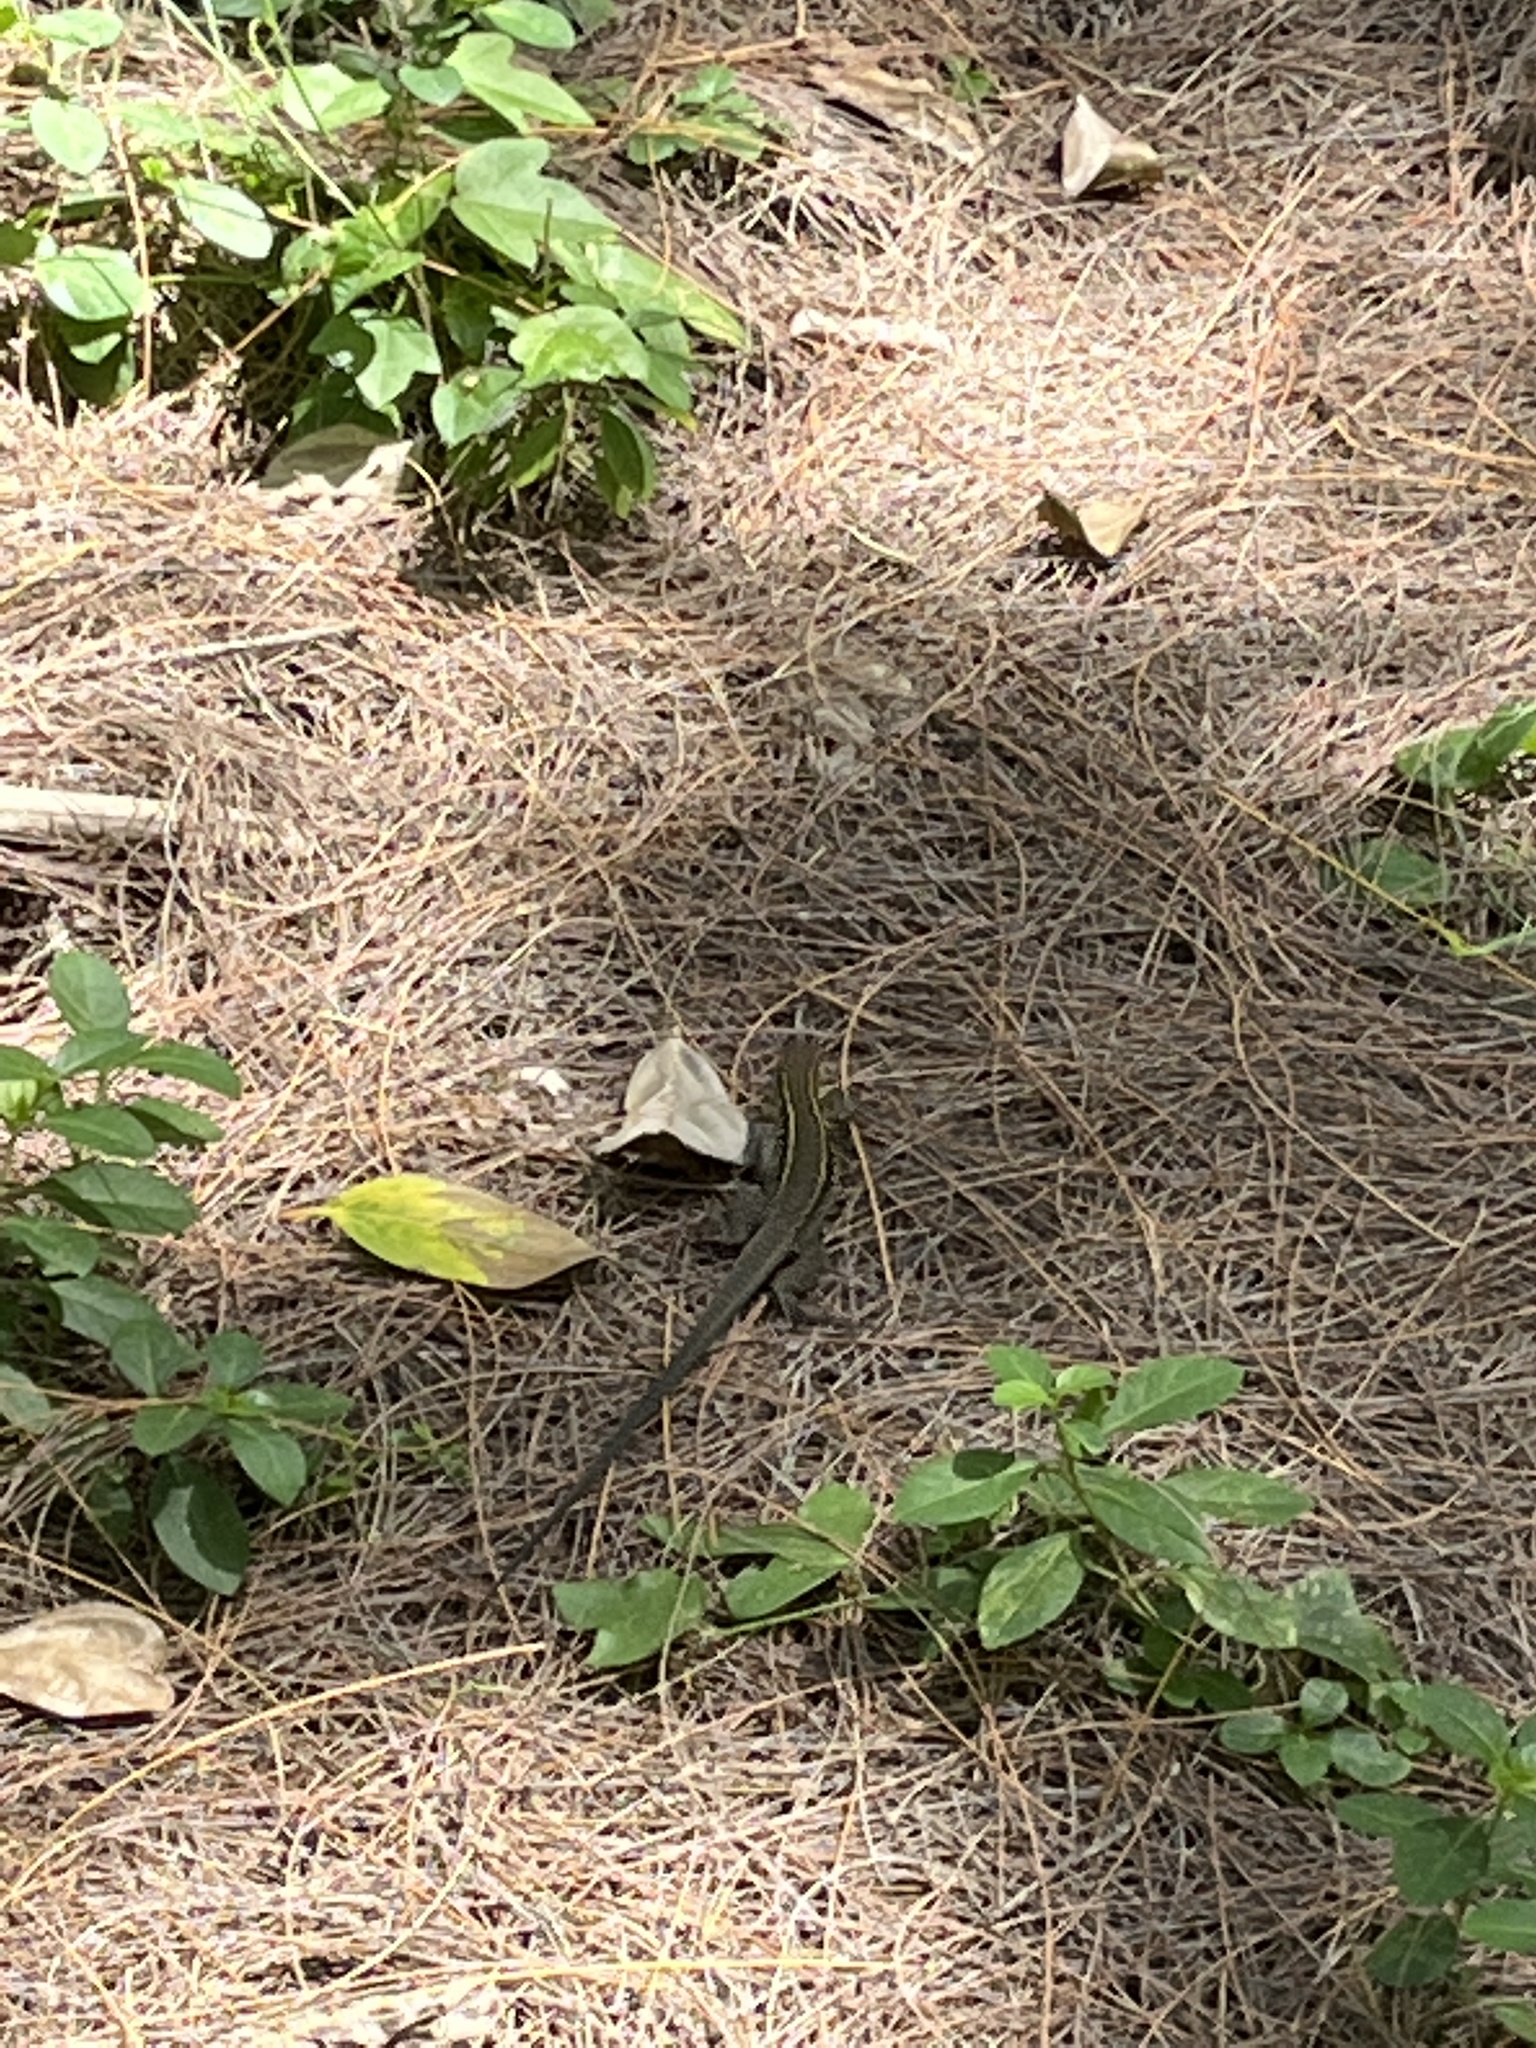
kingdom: Animalia
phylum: Chordata
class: Squamata
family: Teiidae
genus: Pholidoscelis
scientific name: Pholidoscelis exsul
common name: Common puerto rican ameiva
